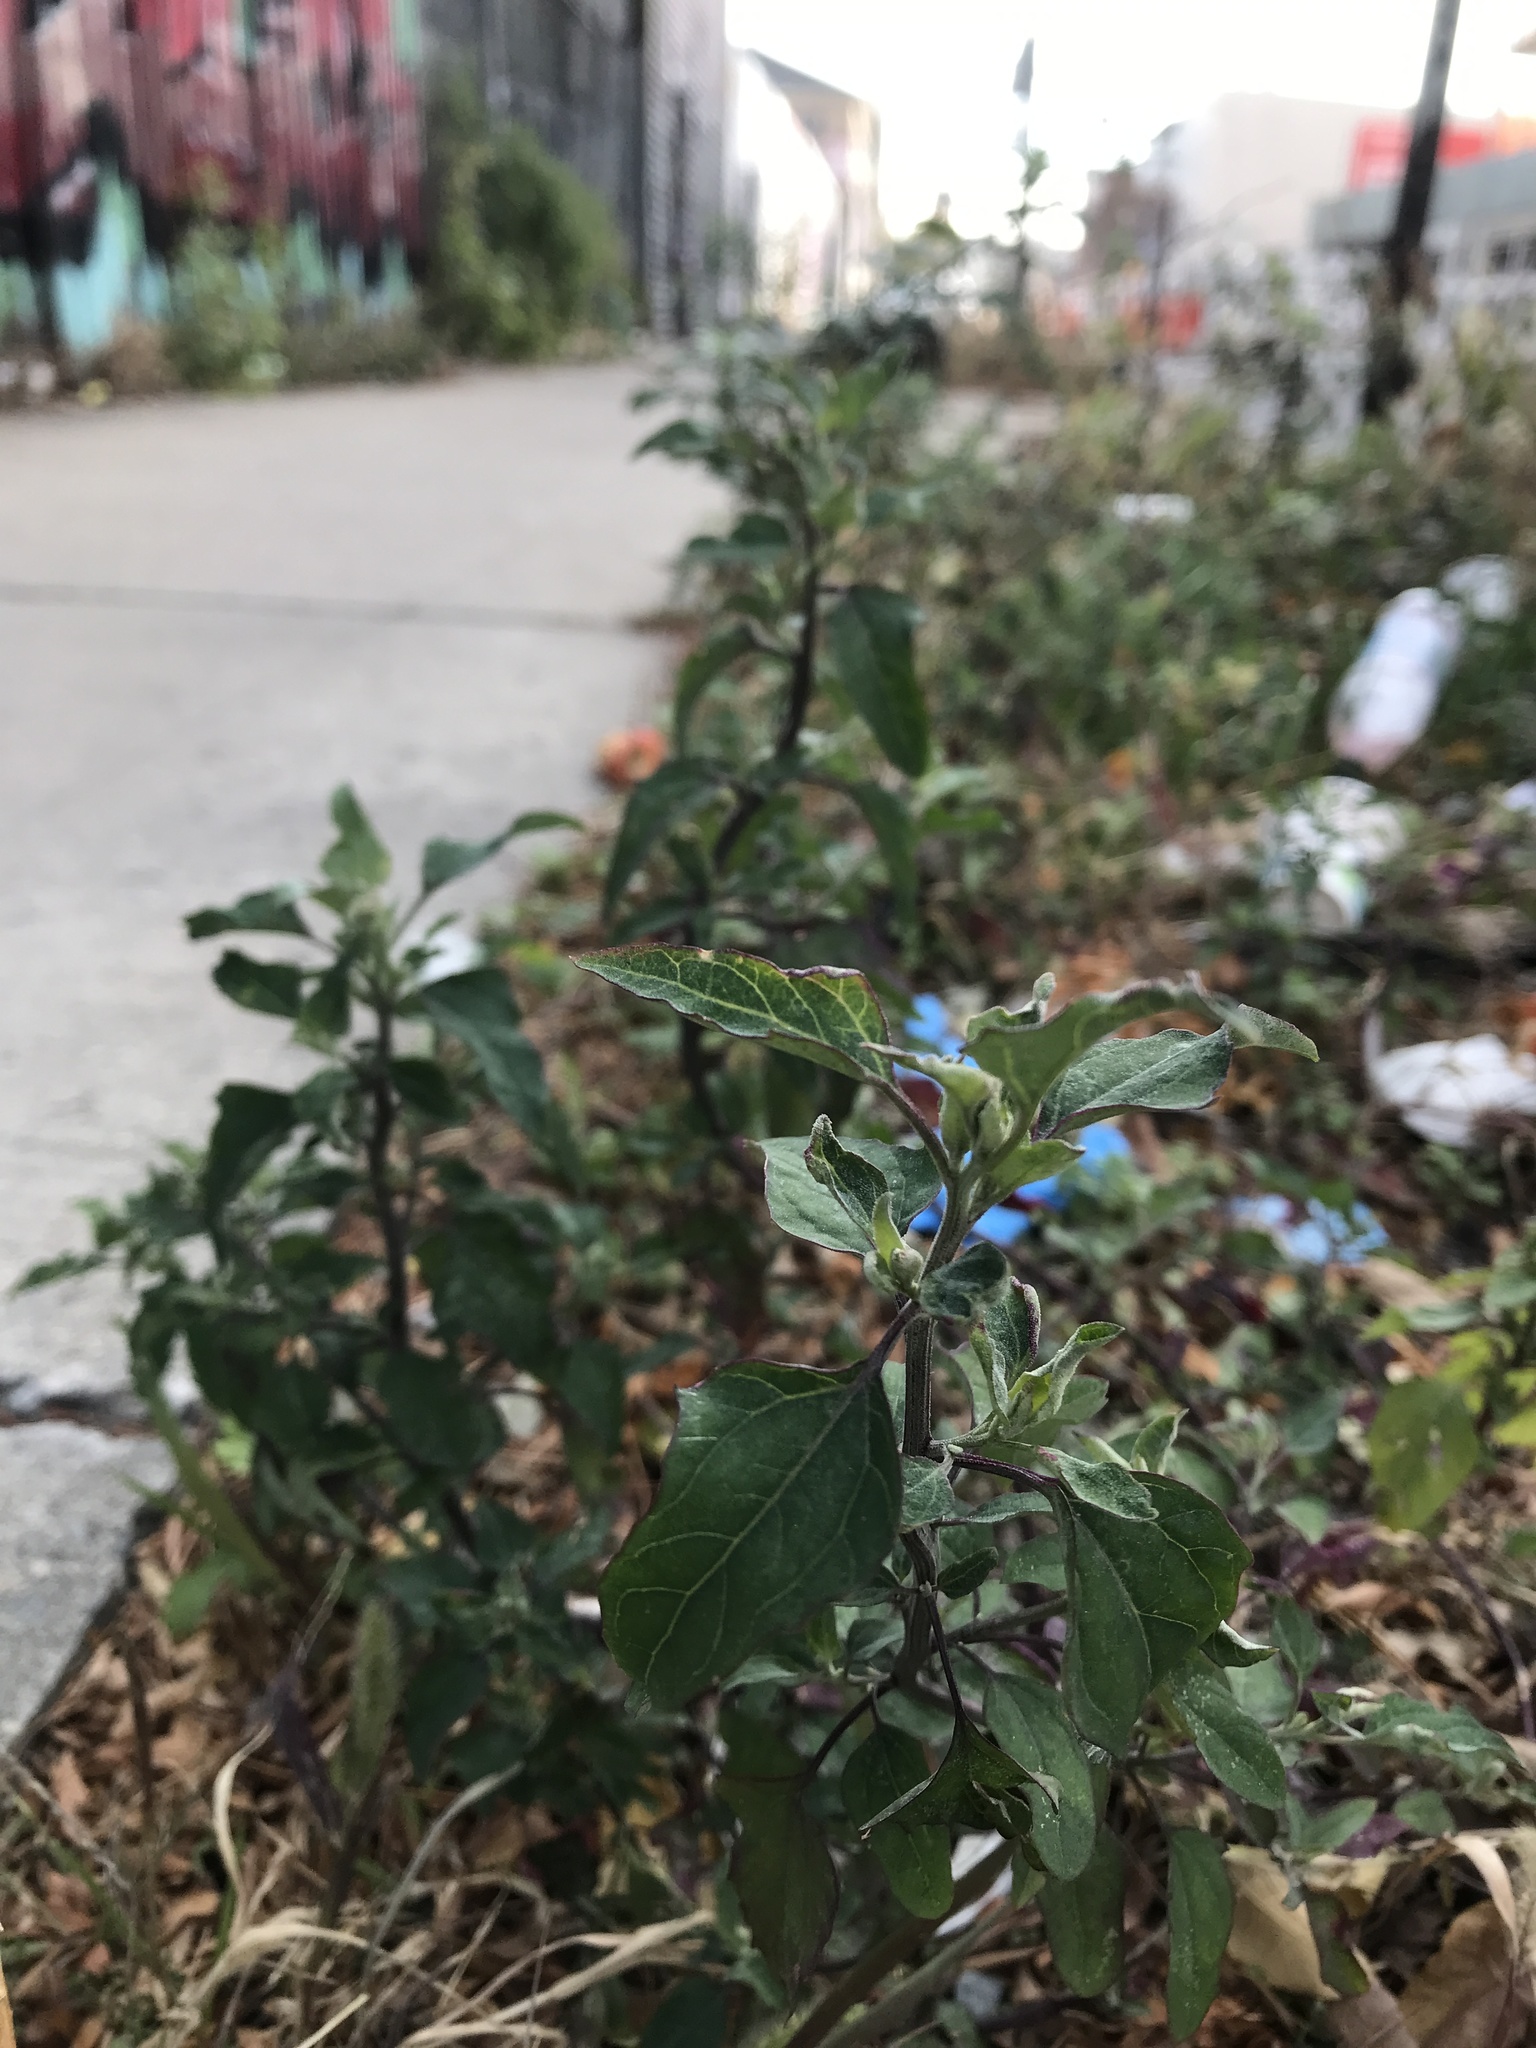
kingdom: Plantae
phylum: Tracheophyta
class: Magnoliopsida
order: Caryophyllales
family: Amaranthaceae
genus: Chenopodium
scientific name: Chenopodium album
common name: Fat-hen
